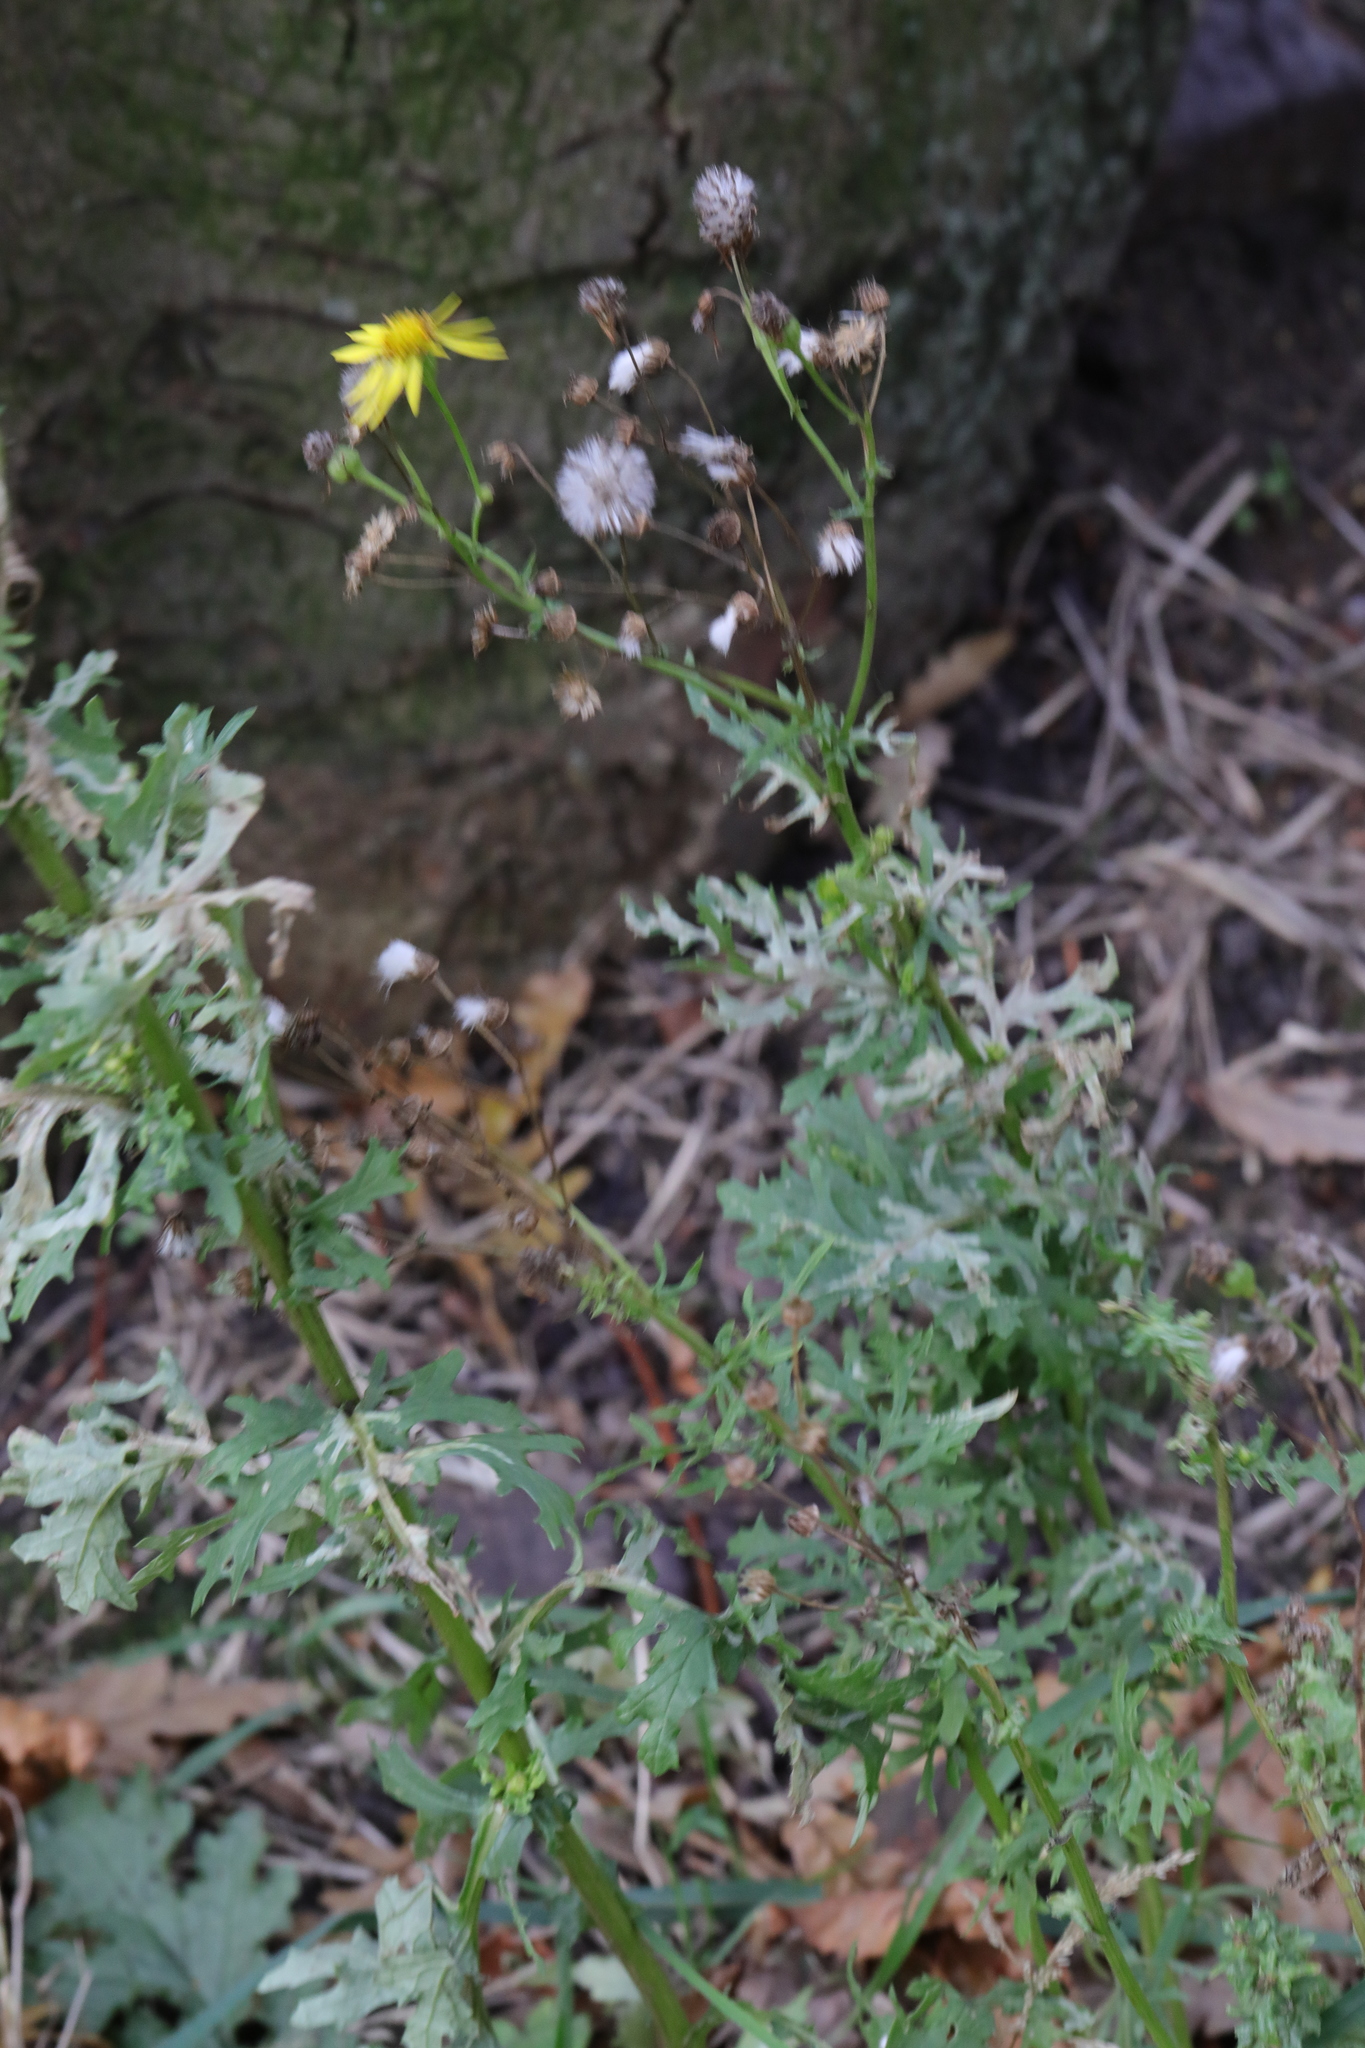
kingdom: Plantae
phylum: Tracheophyta
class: Magnoliopsida
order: Asterales
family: Asteraceae
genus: Senecio
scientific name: Senecio squalidus
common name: Oxford ragwort
